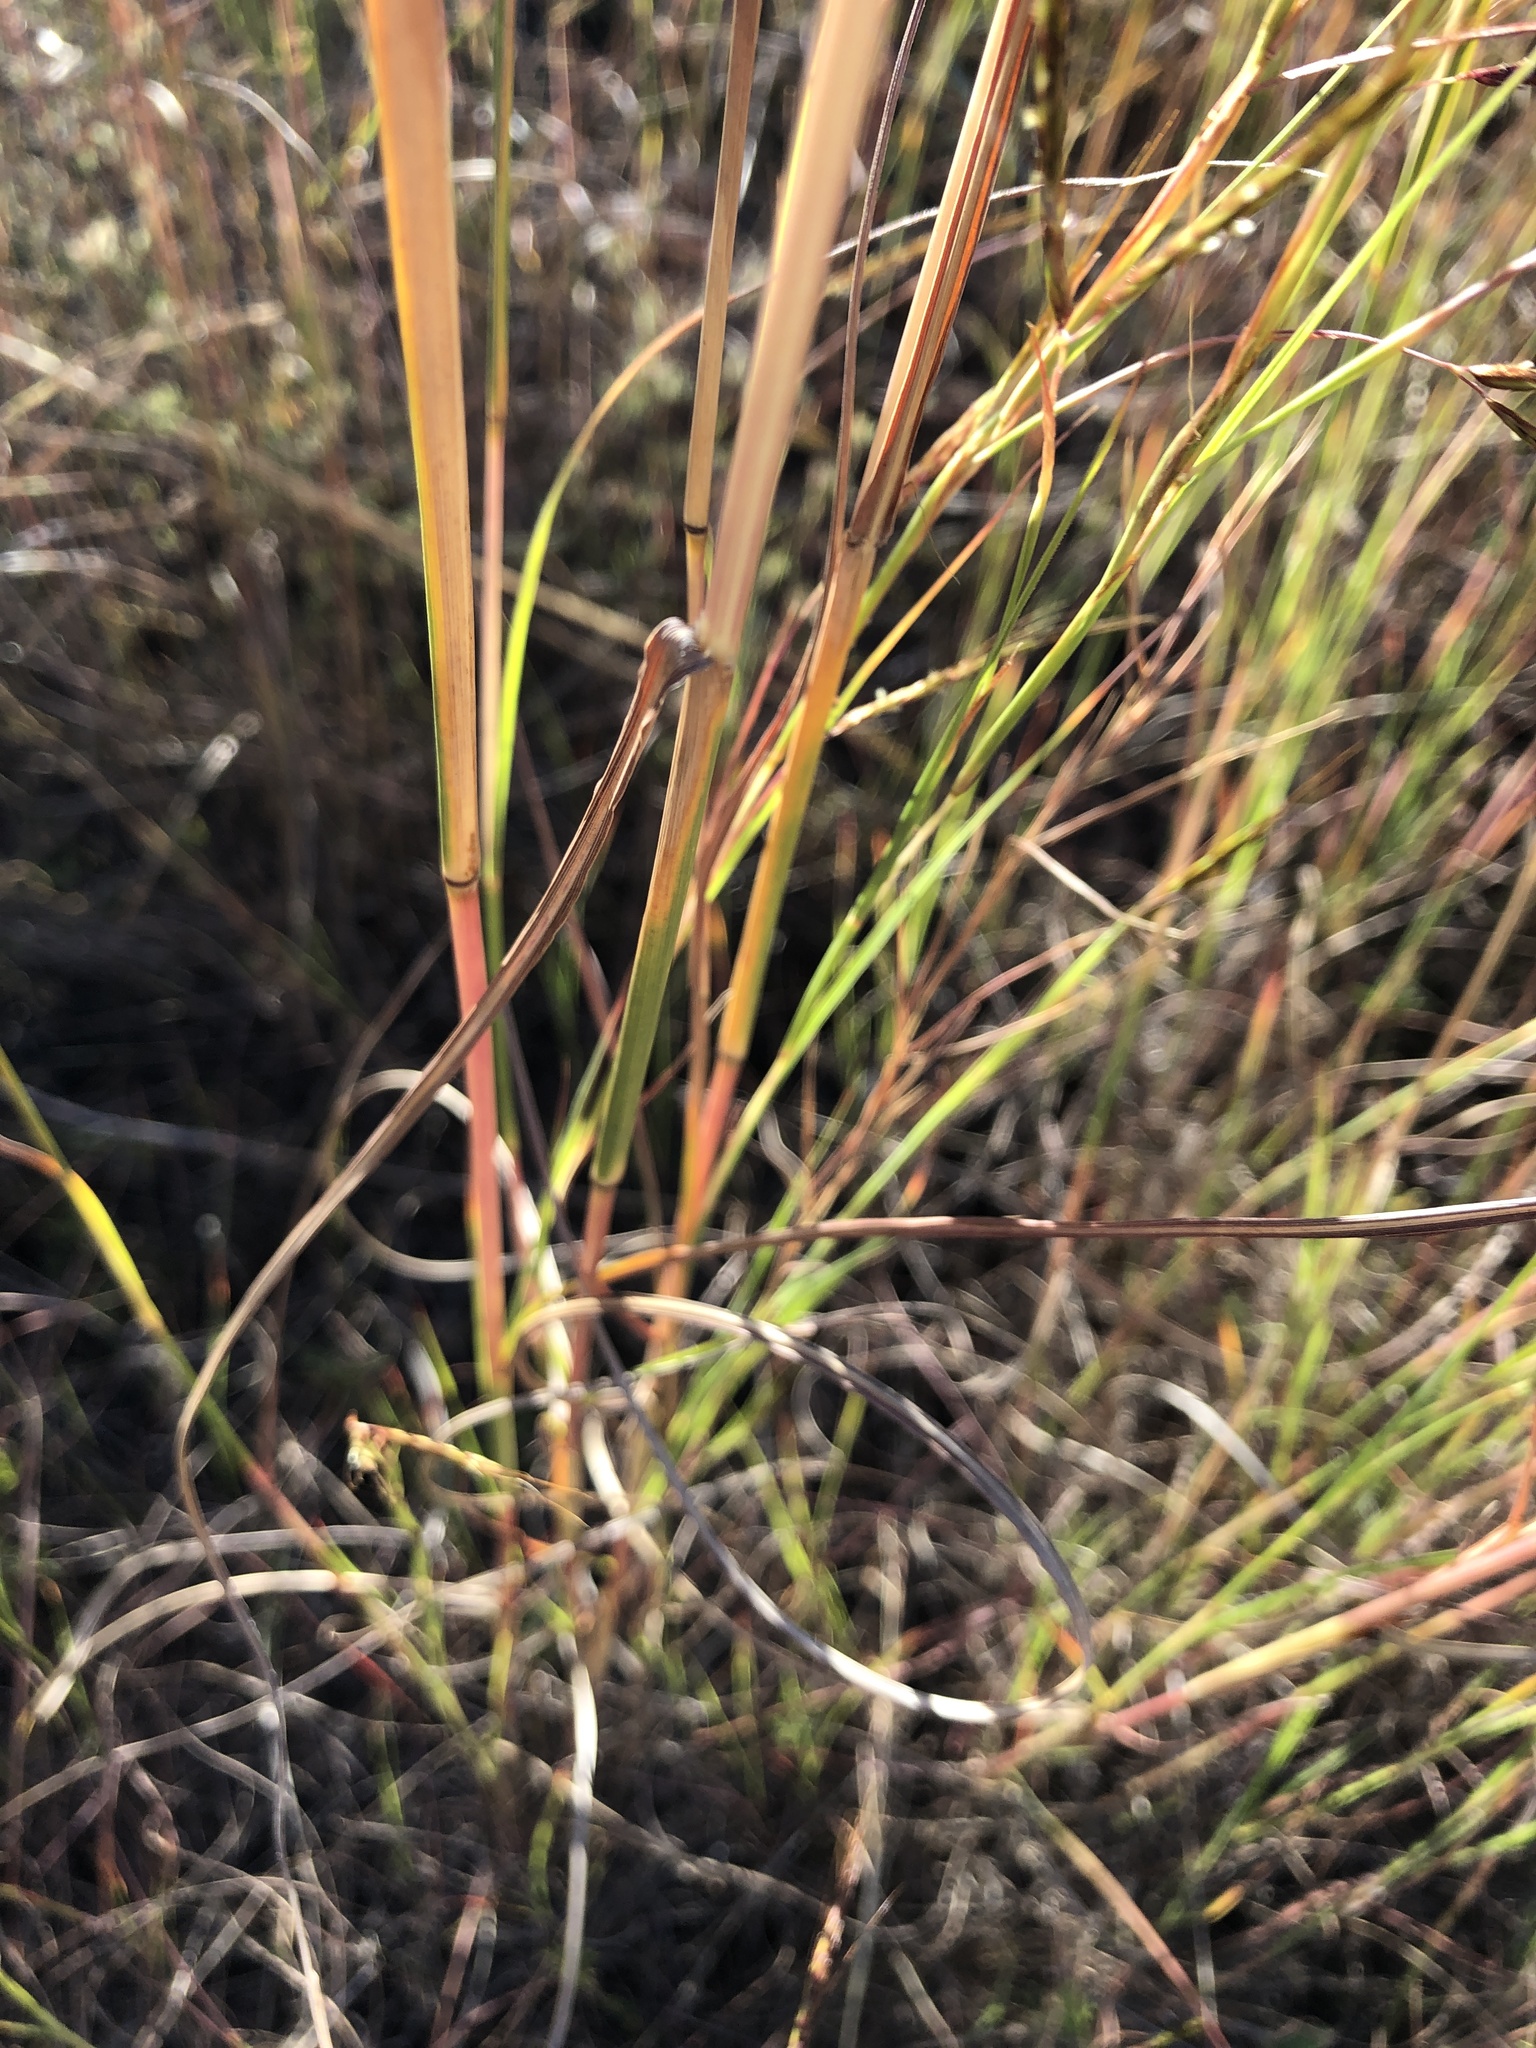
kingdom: Plantae
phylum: Tracheophyta
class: Liliopsida
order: Poales
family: Poaceae
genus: Hyparrhenia
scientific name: Hyparrhenia hirta
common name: Thatching grass
